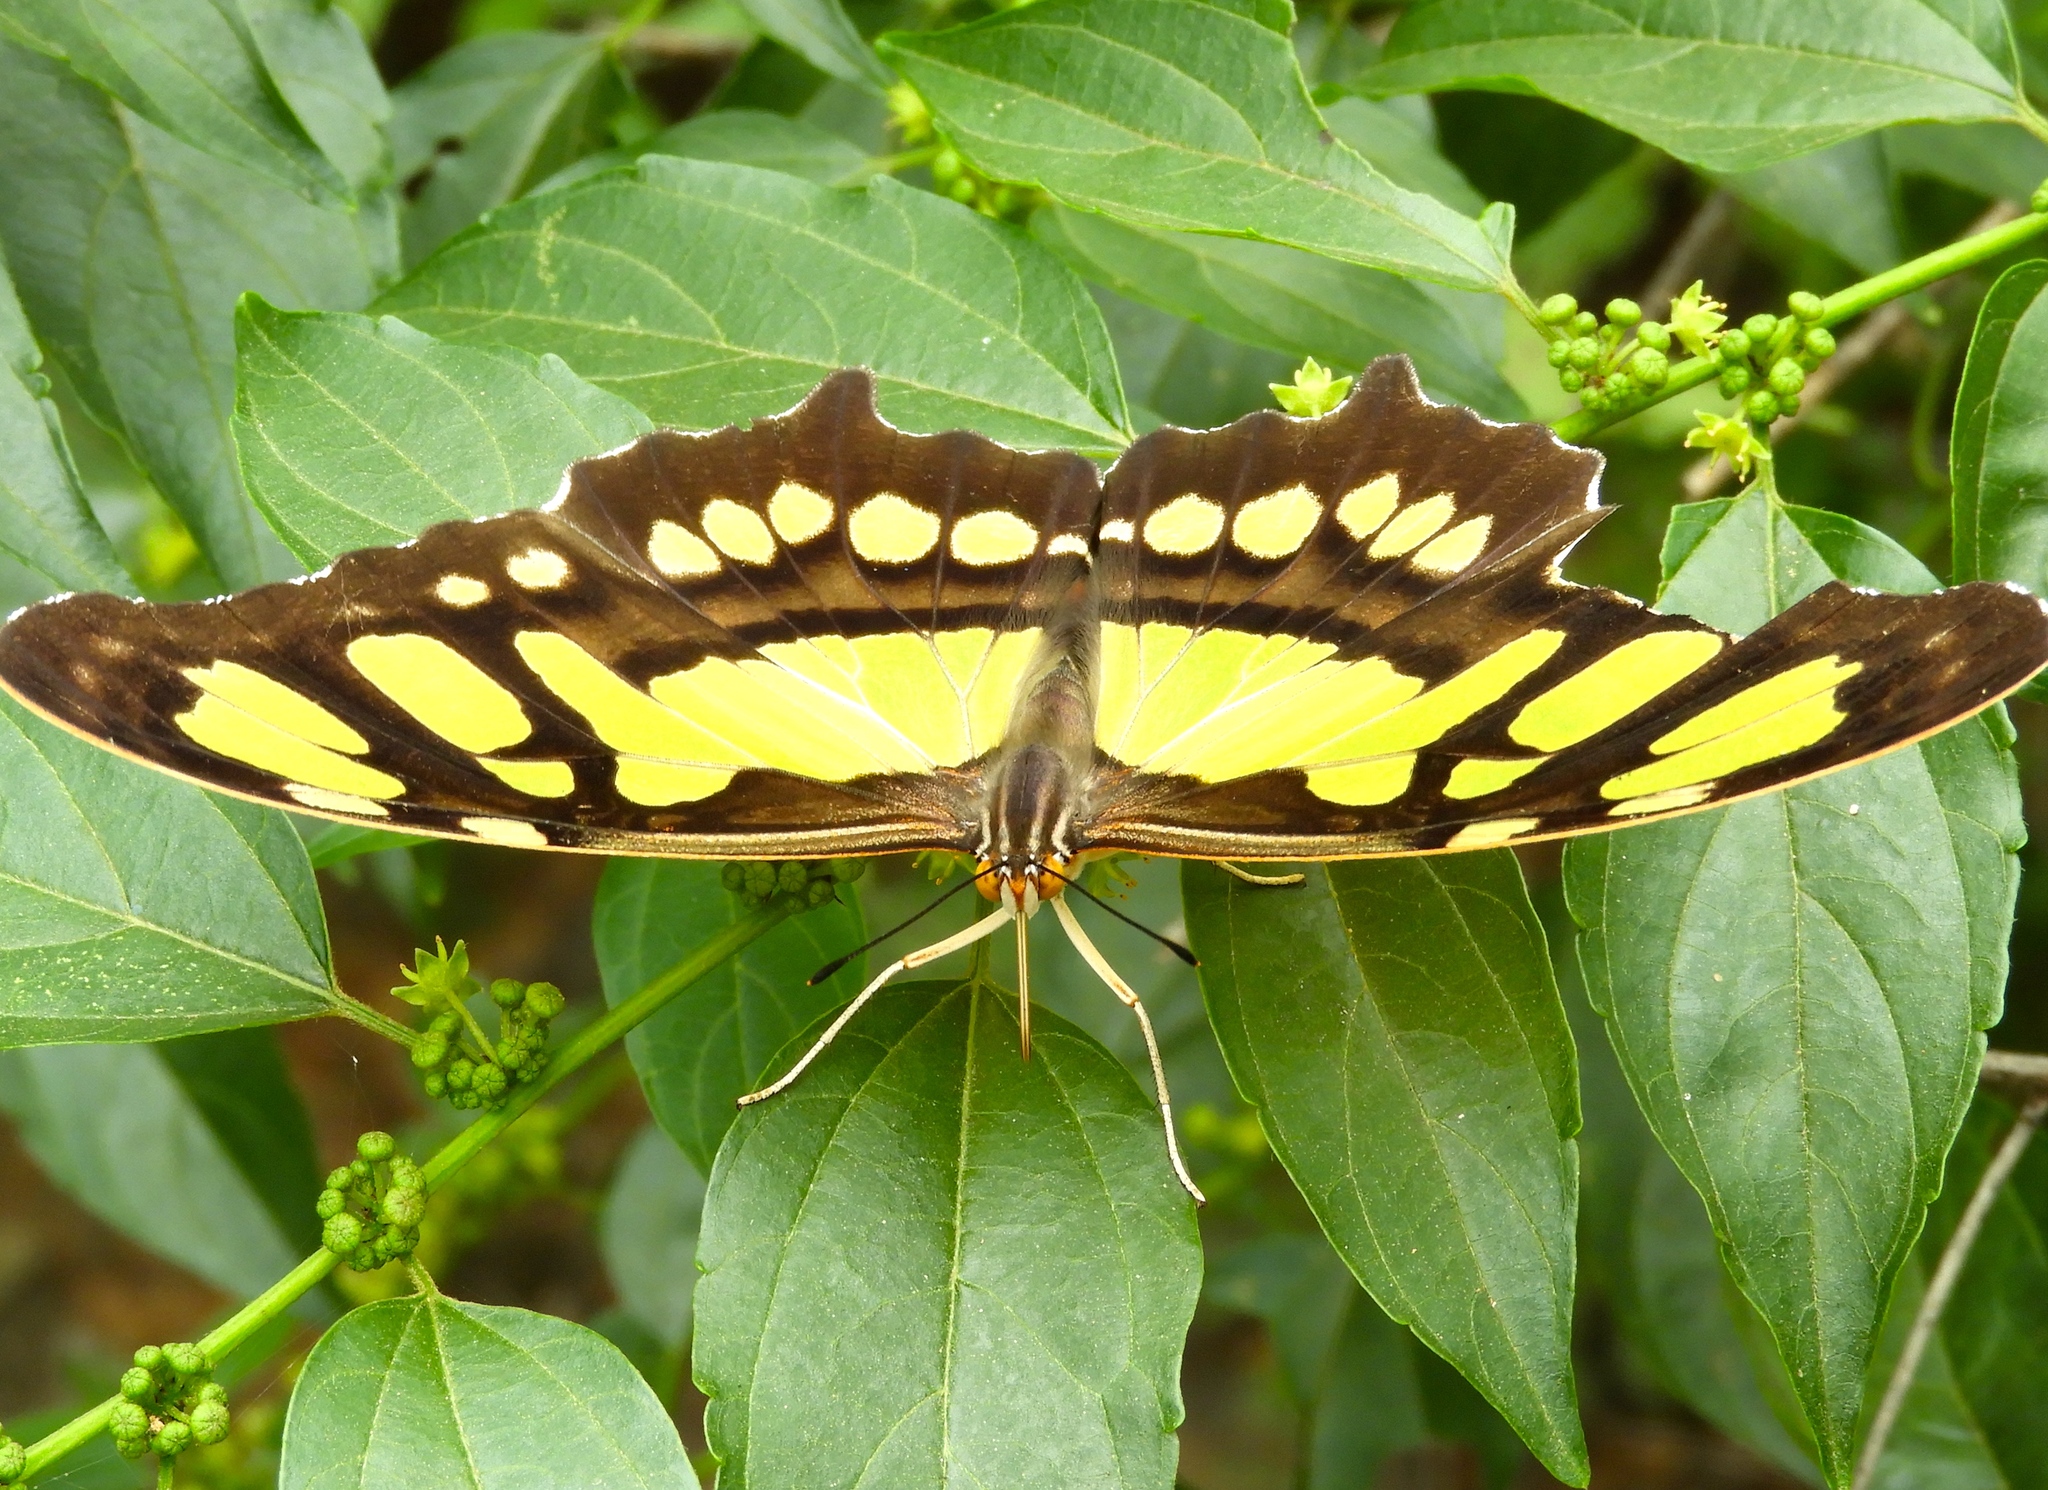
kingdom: Animalia
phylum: Arthropoda
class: Insecta
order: Lepidoptera
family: Nymphalidae
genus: Siproeta
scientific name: Siproeta stelenes
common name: Malachite
